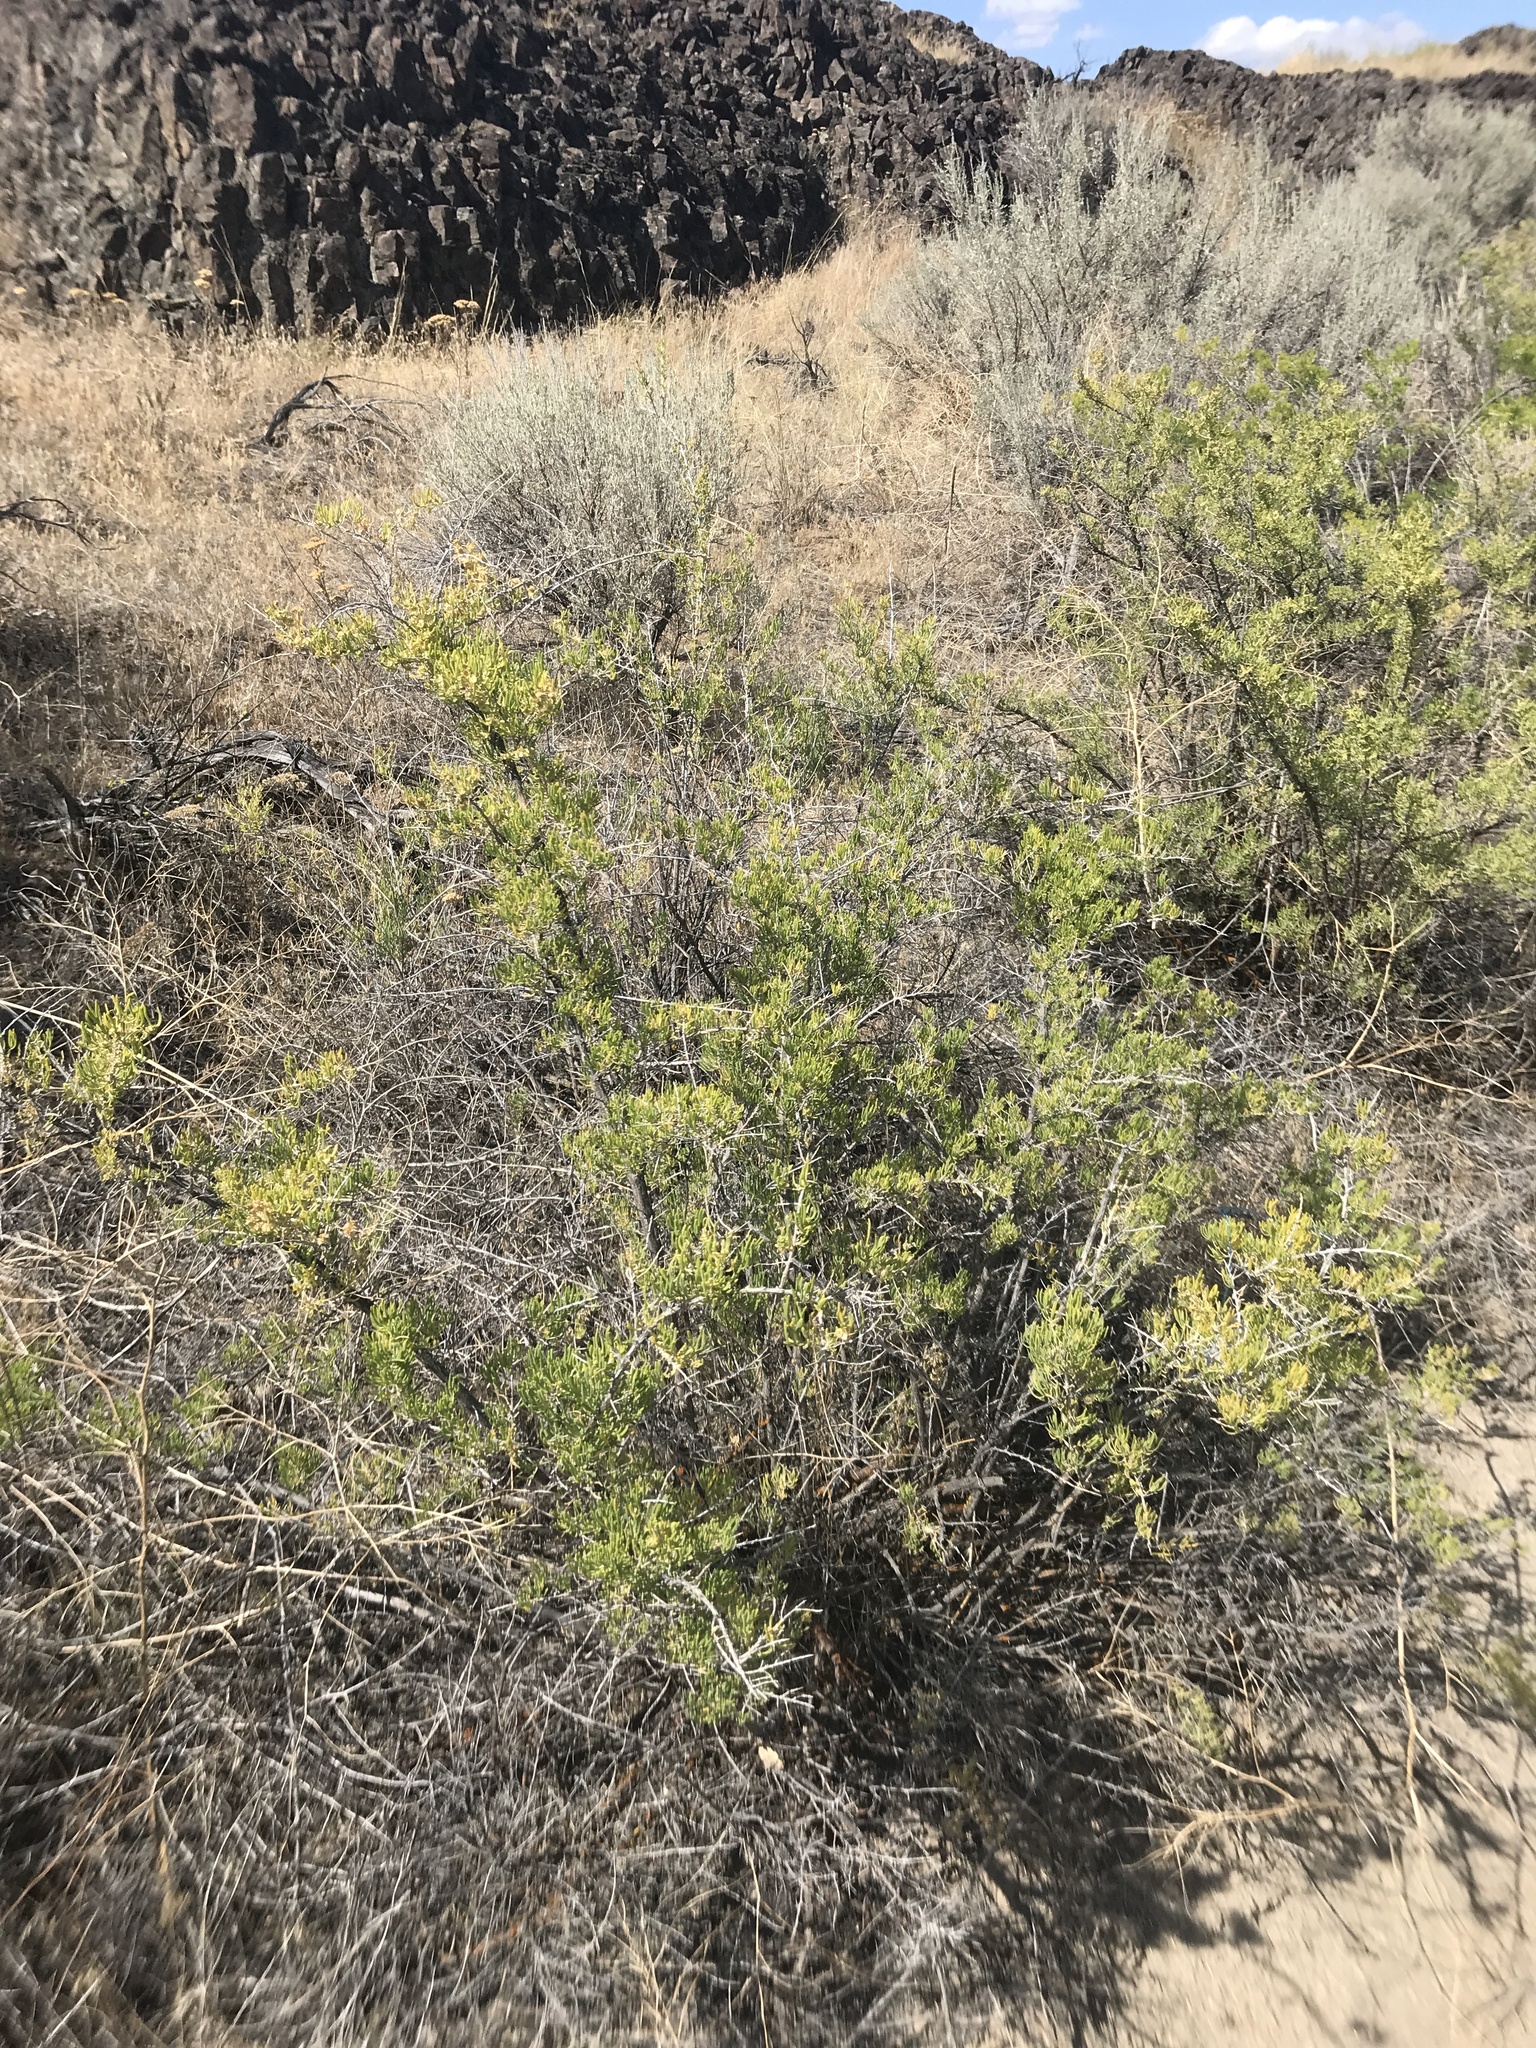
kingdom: Plantae
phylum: Tracheophyta
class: Magnoliopsida
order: Caryophyllales
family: Sarcobataceae
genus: Sarcobatus
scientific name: Sarcobatus vermiculatus
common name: Greasewood
